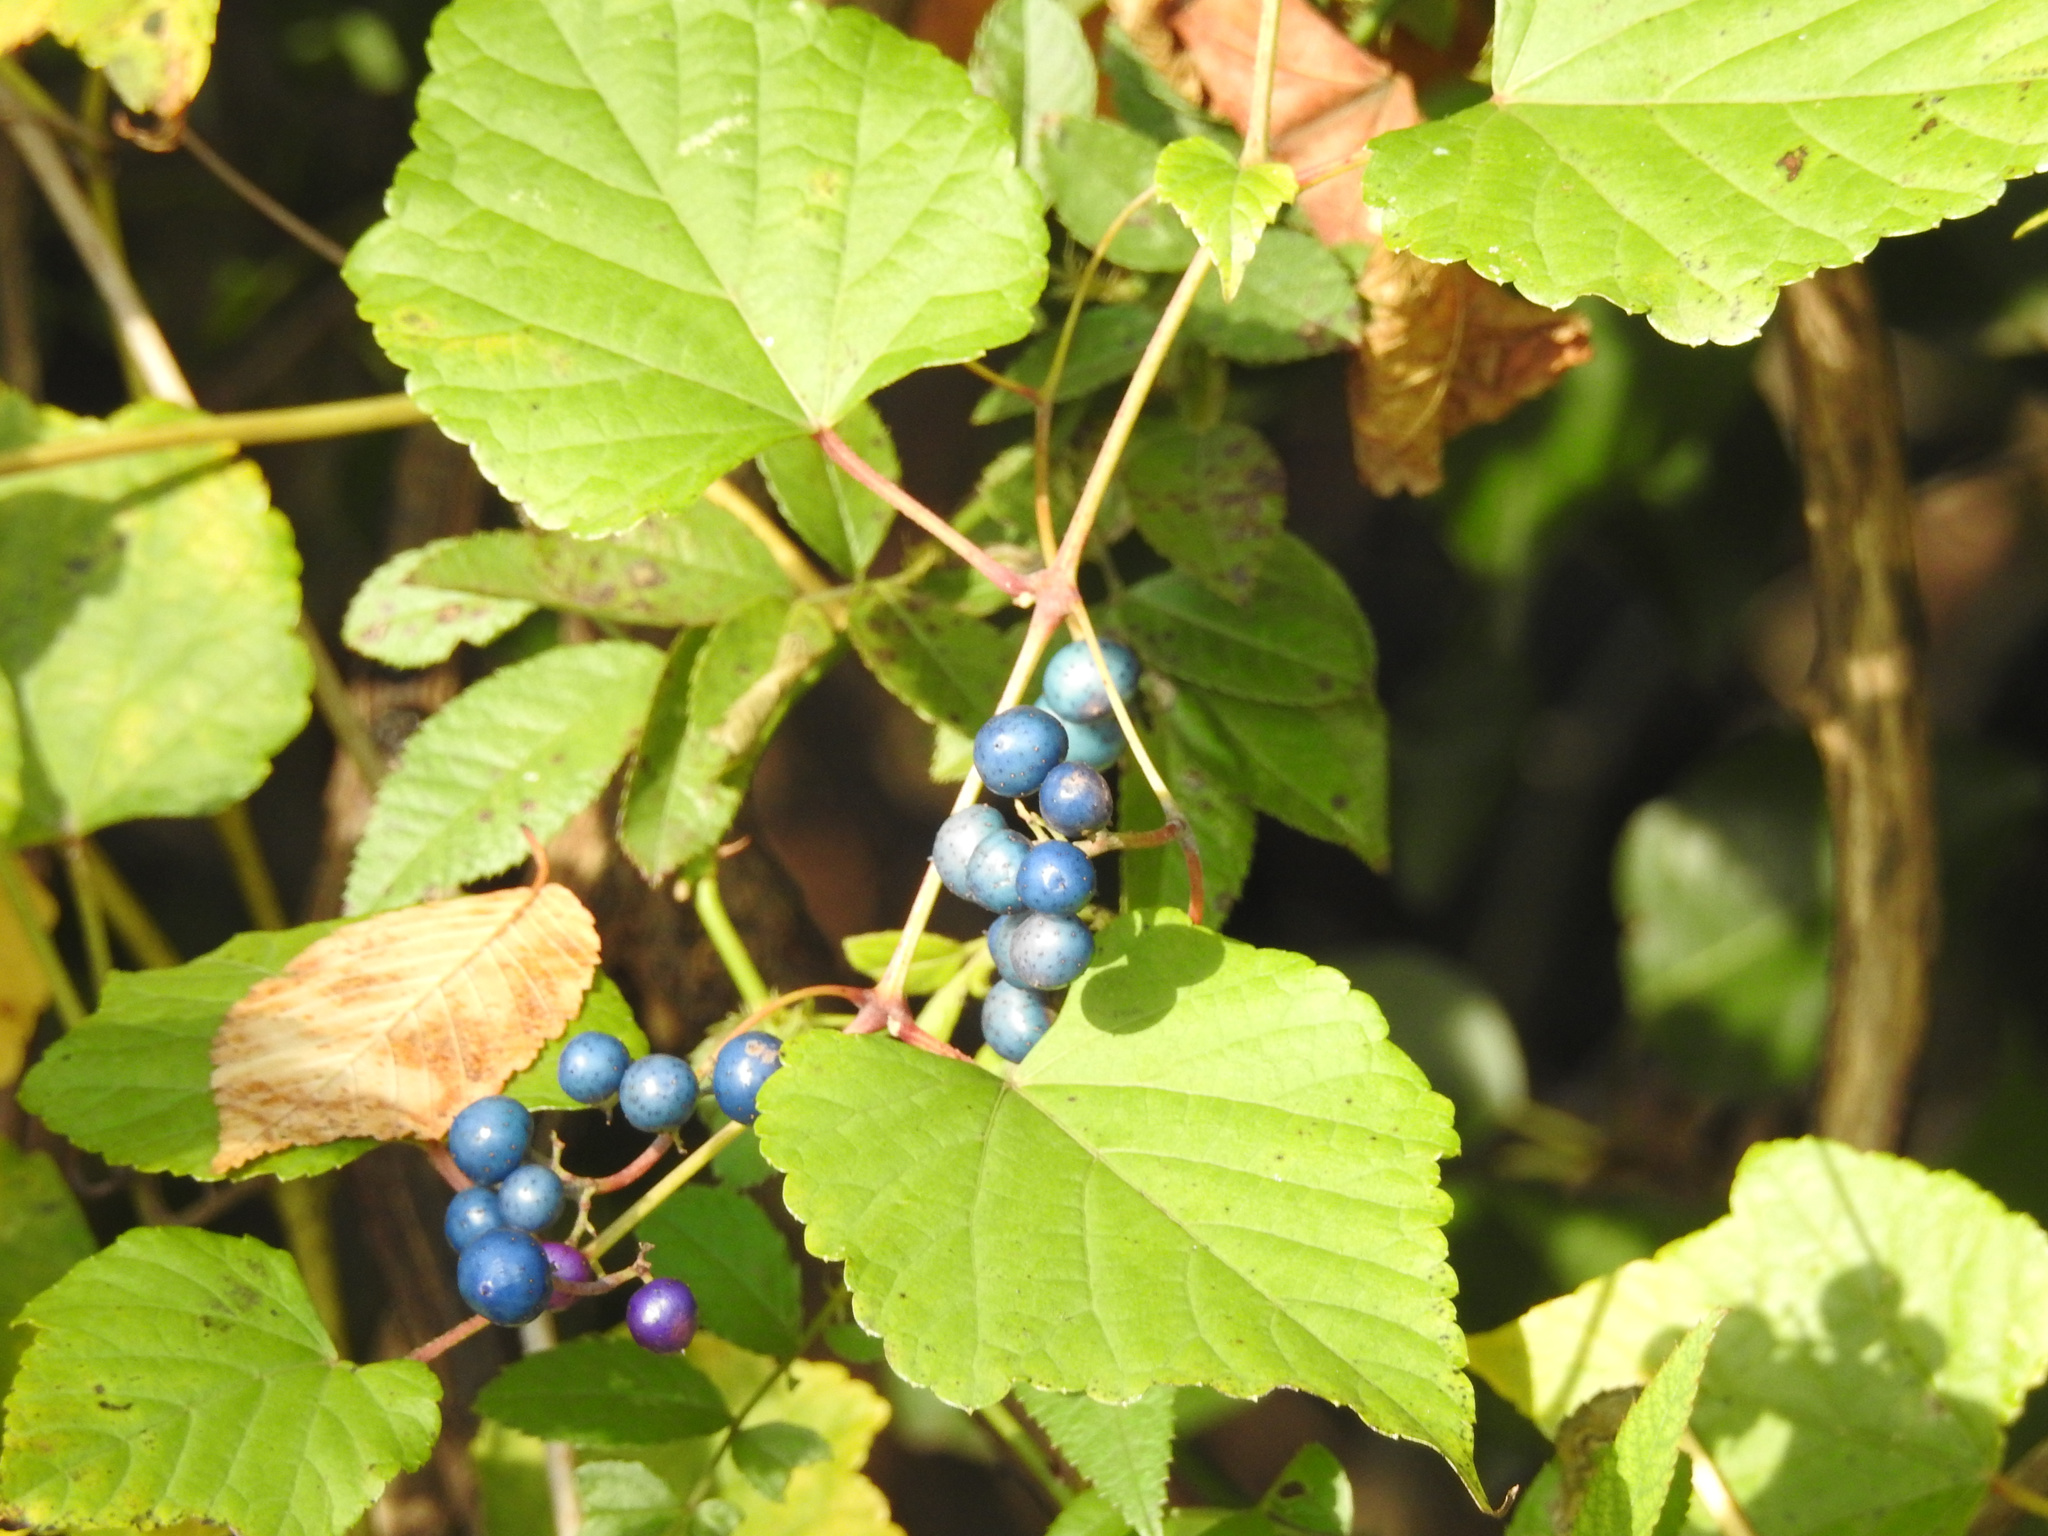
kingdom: Plantae
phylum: Tracheophyta
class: Magnoliopsida
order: Vitales
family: Vitaceae
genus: Ampelopsis
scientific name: Ampelopsis glandulosa
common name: Amur peppervine
